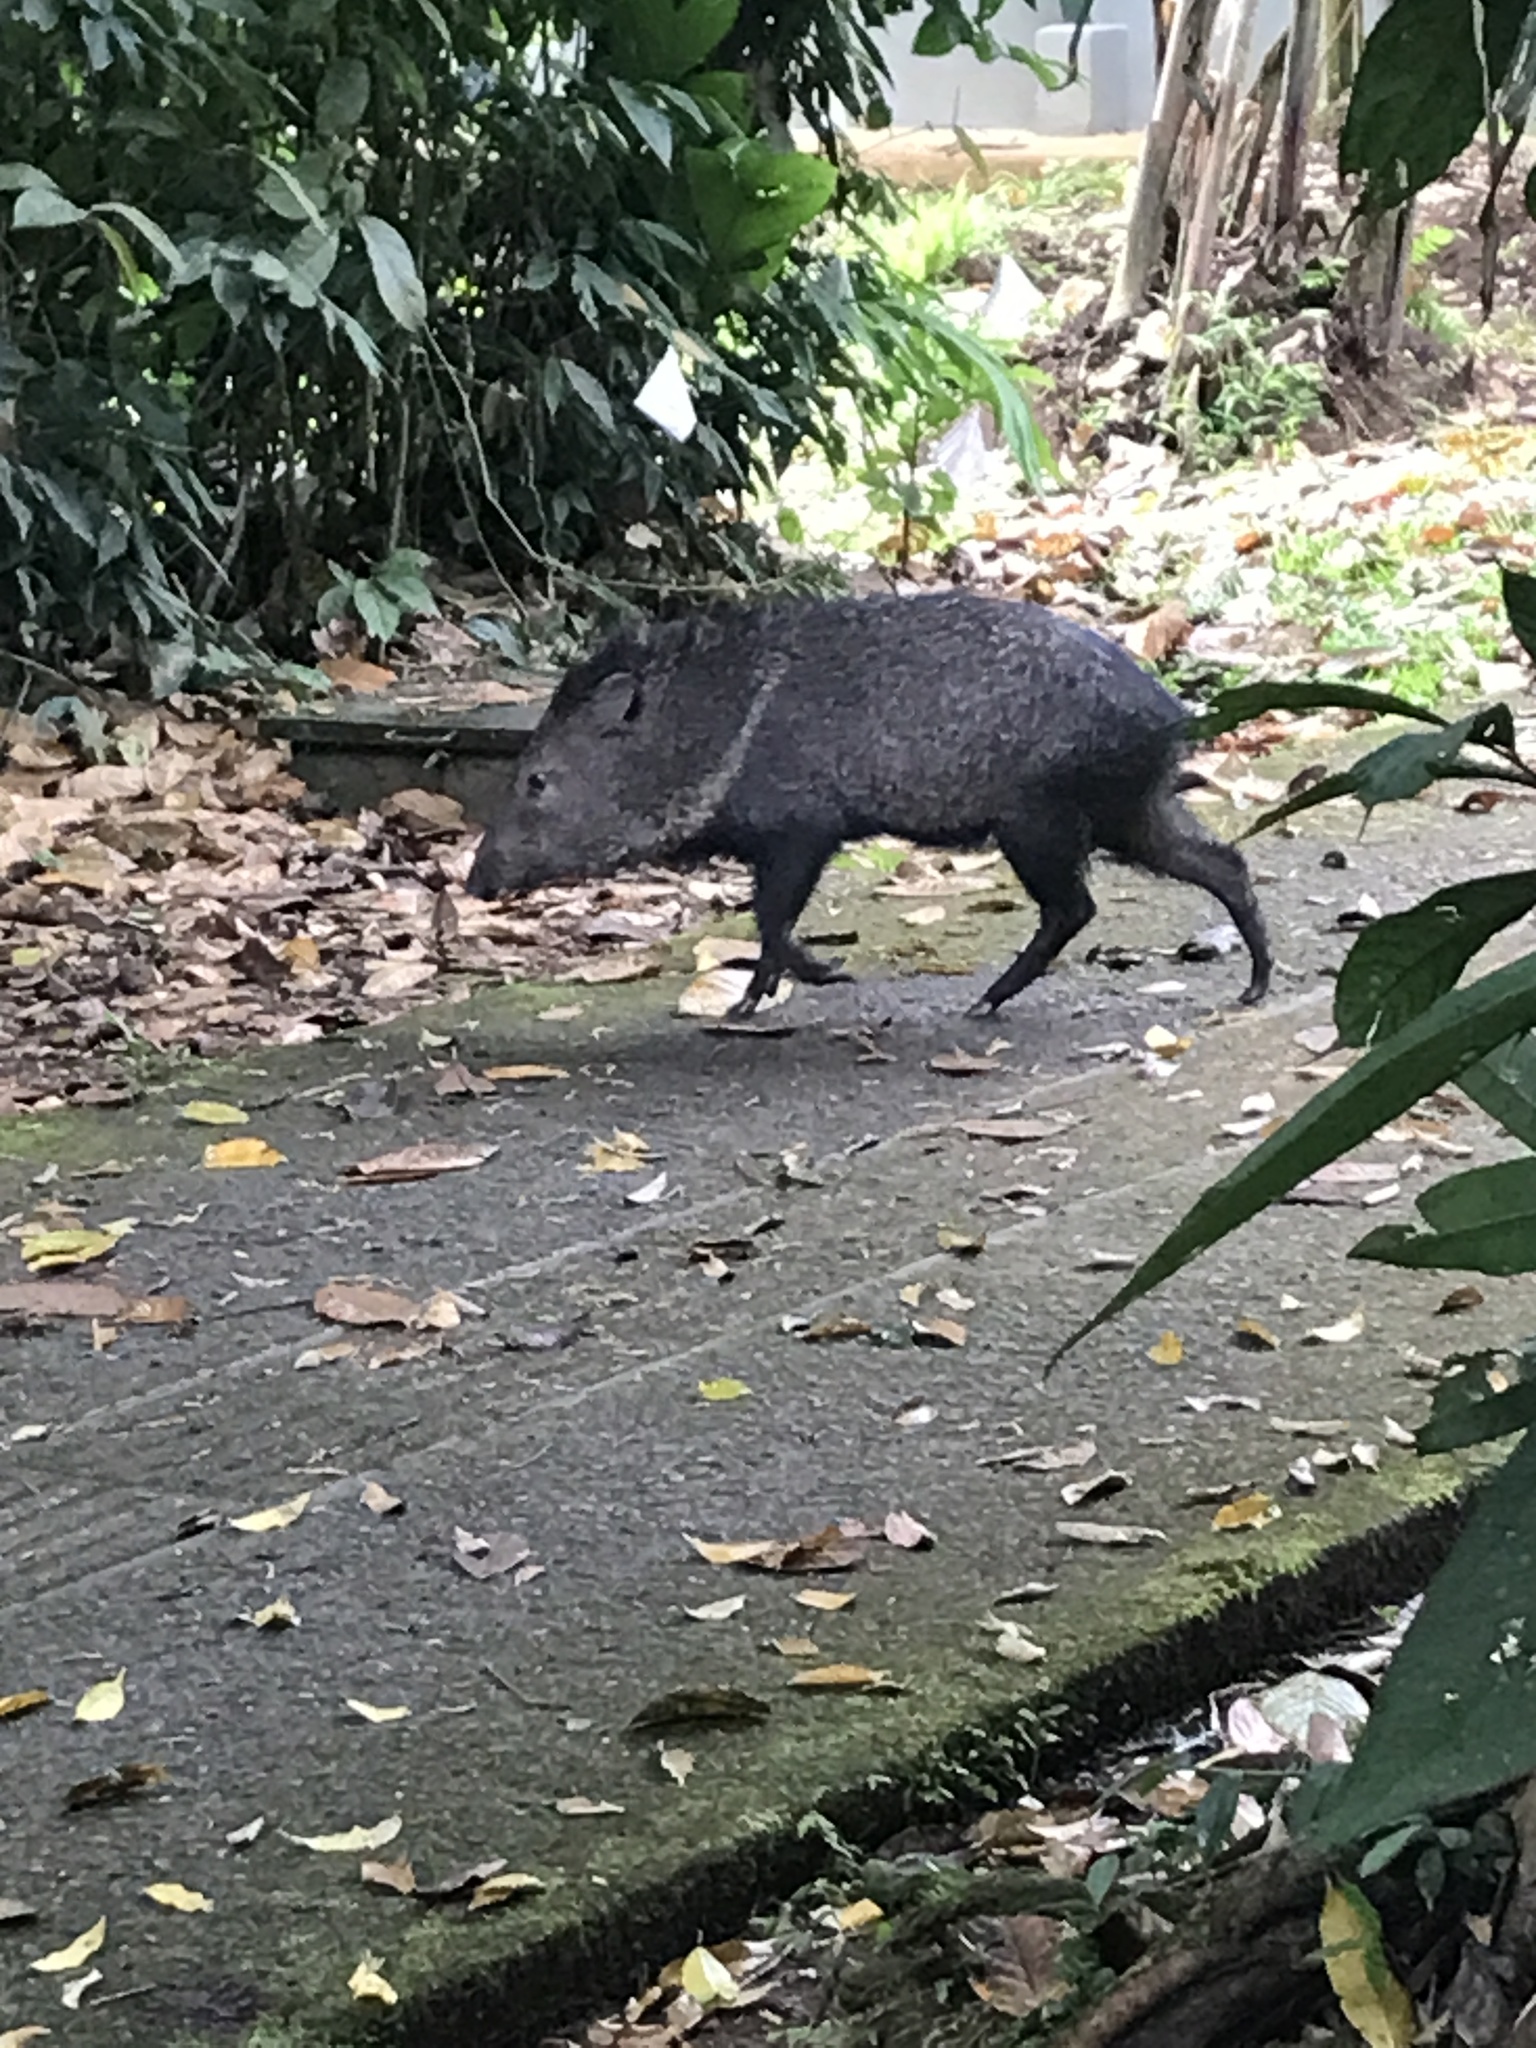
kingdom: Animalia
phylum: Chordata
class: Mammalia
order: Artiodactyla
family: Tayassuidae
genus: Pecari
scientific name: Pecari tajacu
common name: Collared peccary
